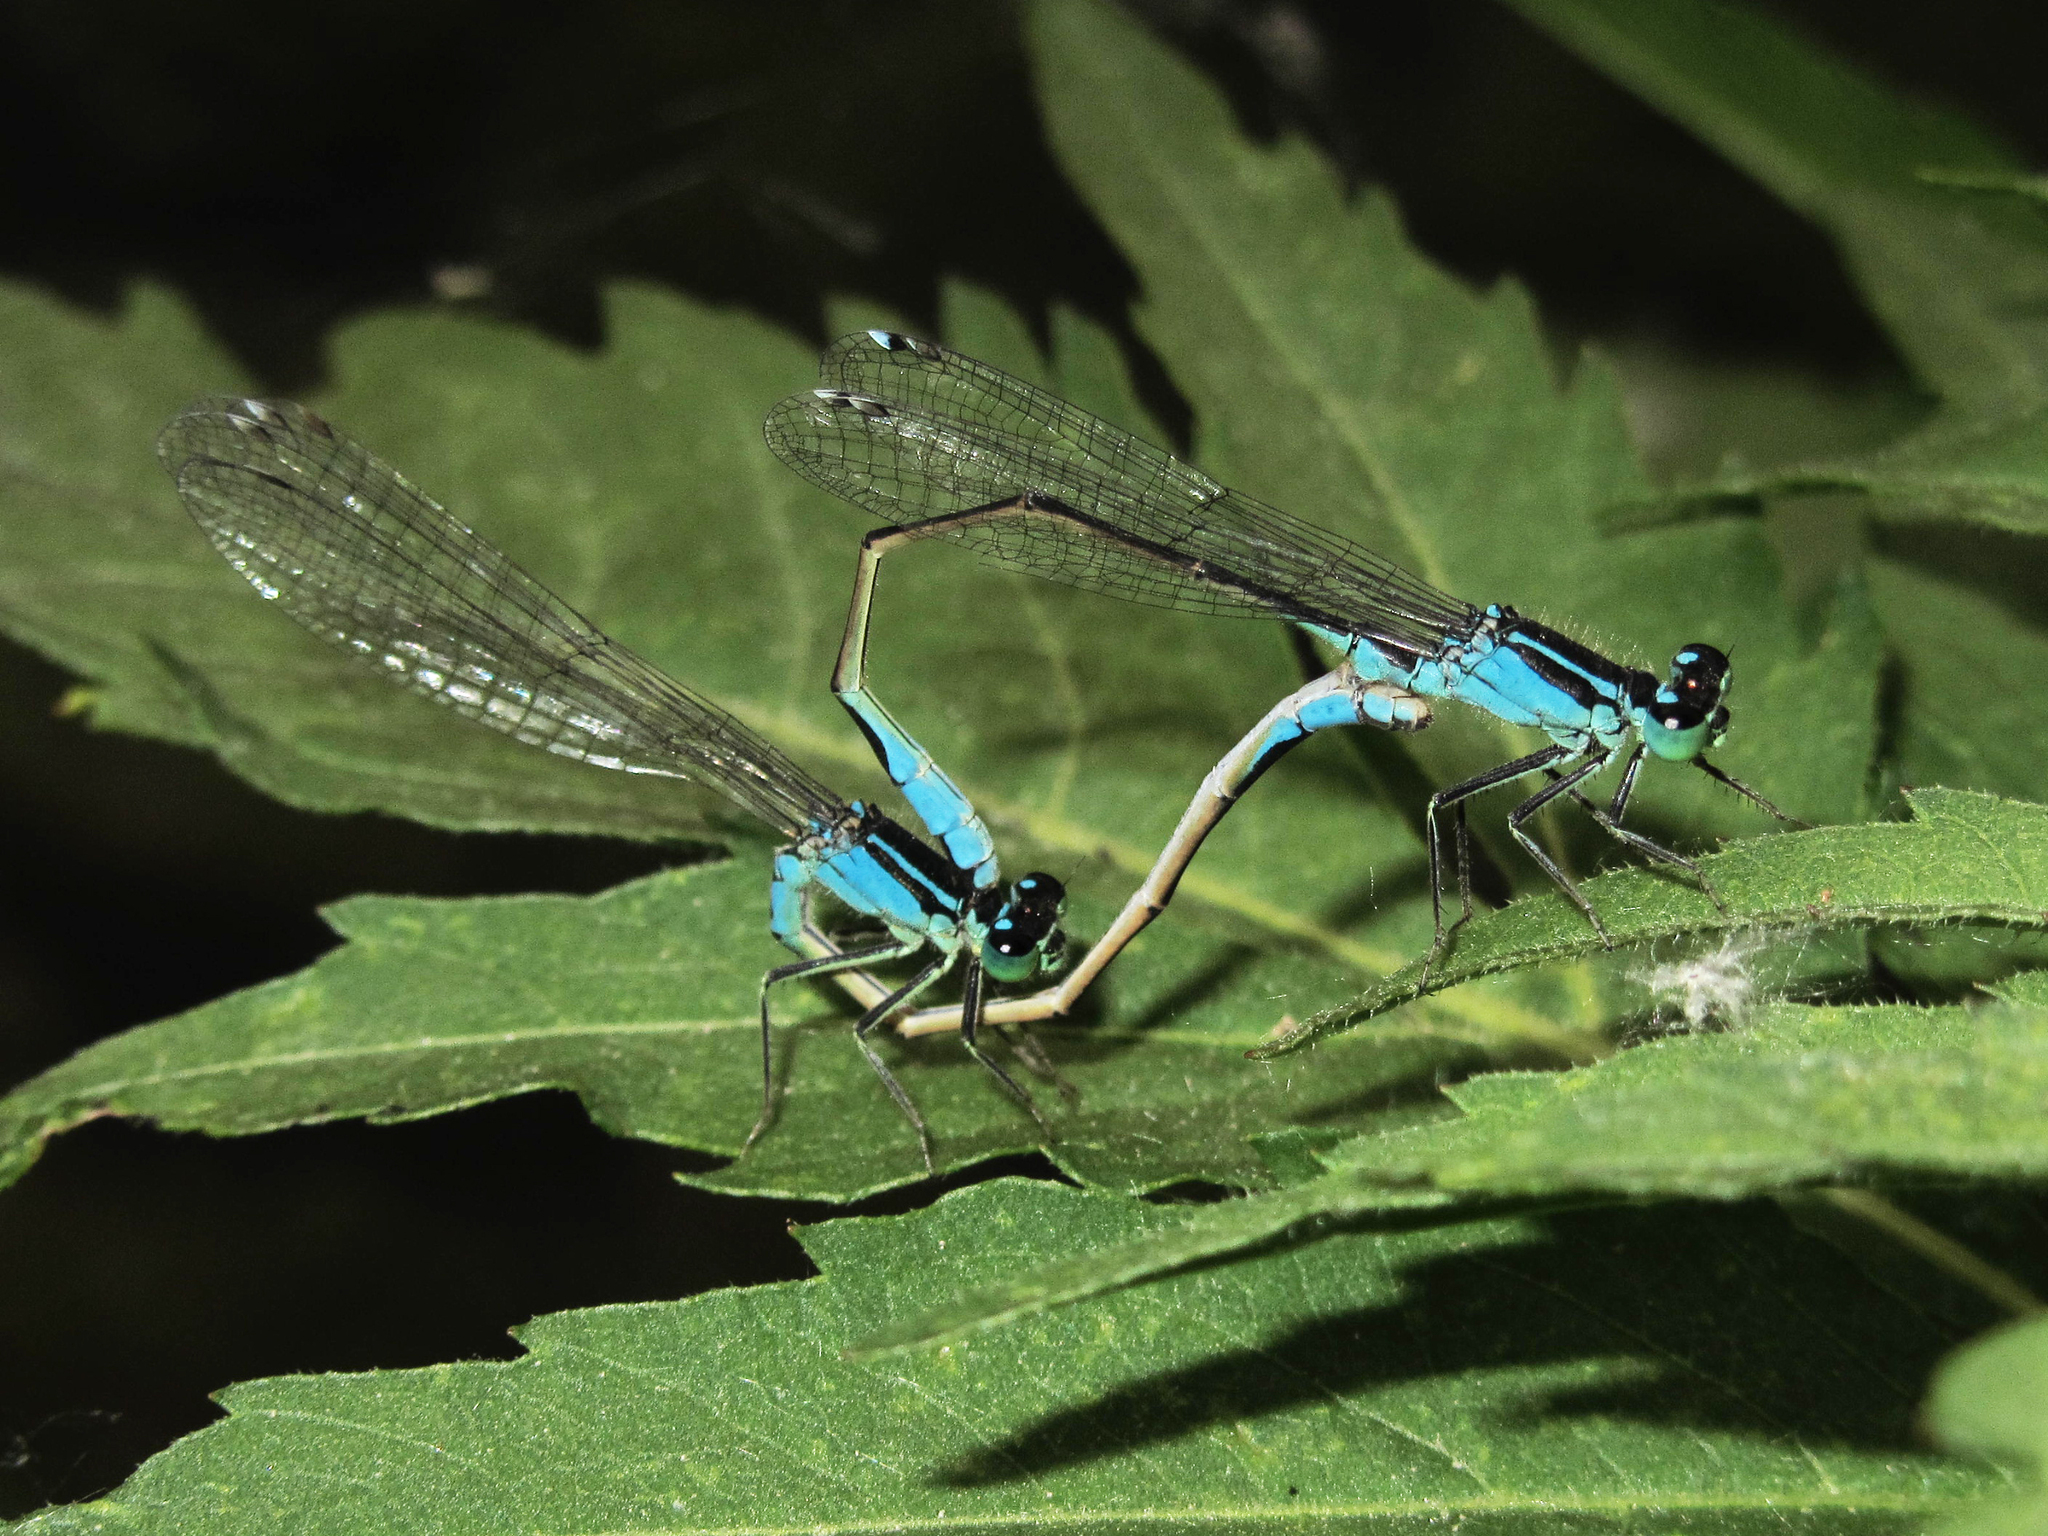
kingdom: Animalia
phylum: Arthropoda
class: Insecta
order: Odonata
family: Coenagrionidae
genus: Ischnura
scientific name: Ischnura elegans
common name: Blue-tailed damselfly
